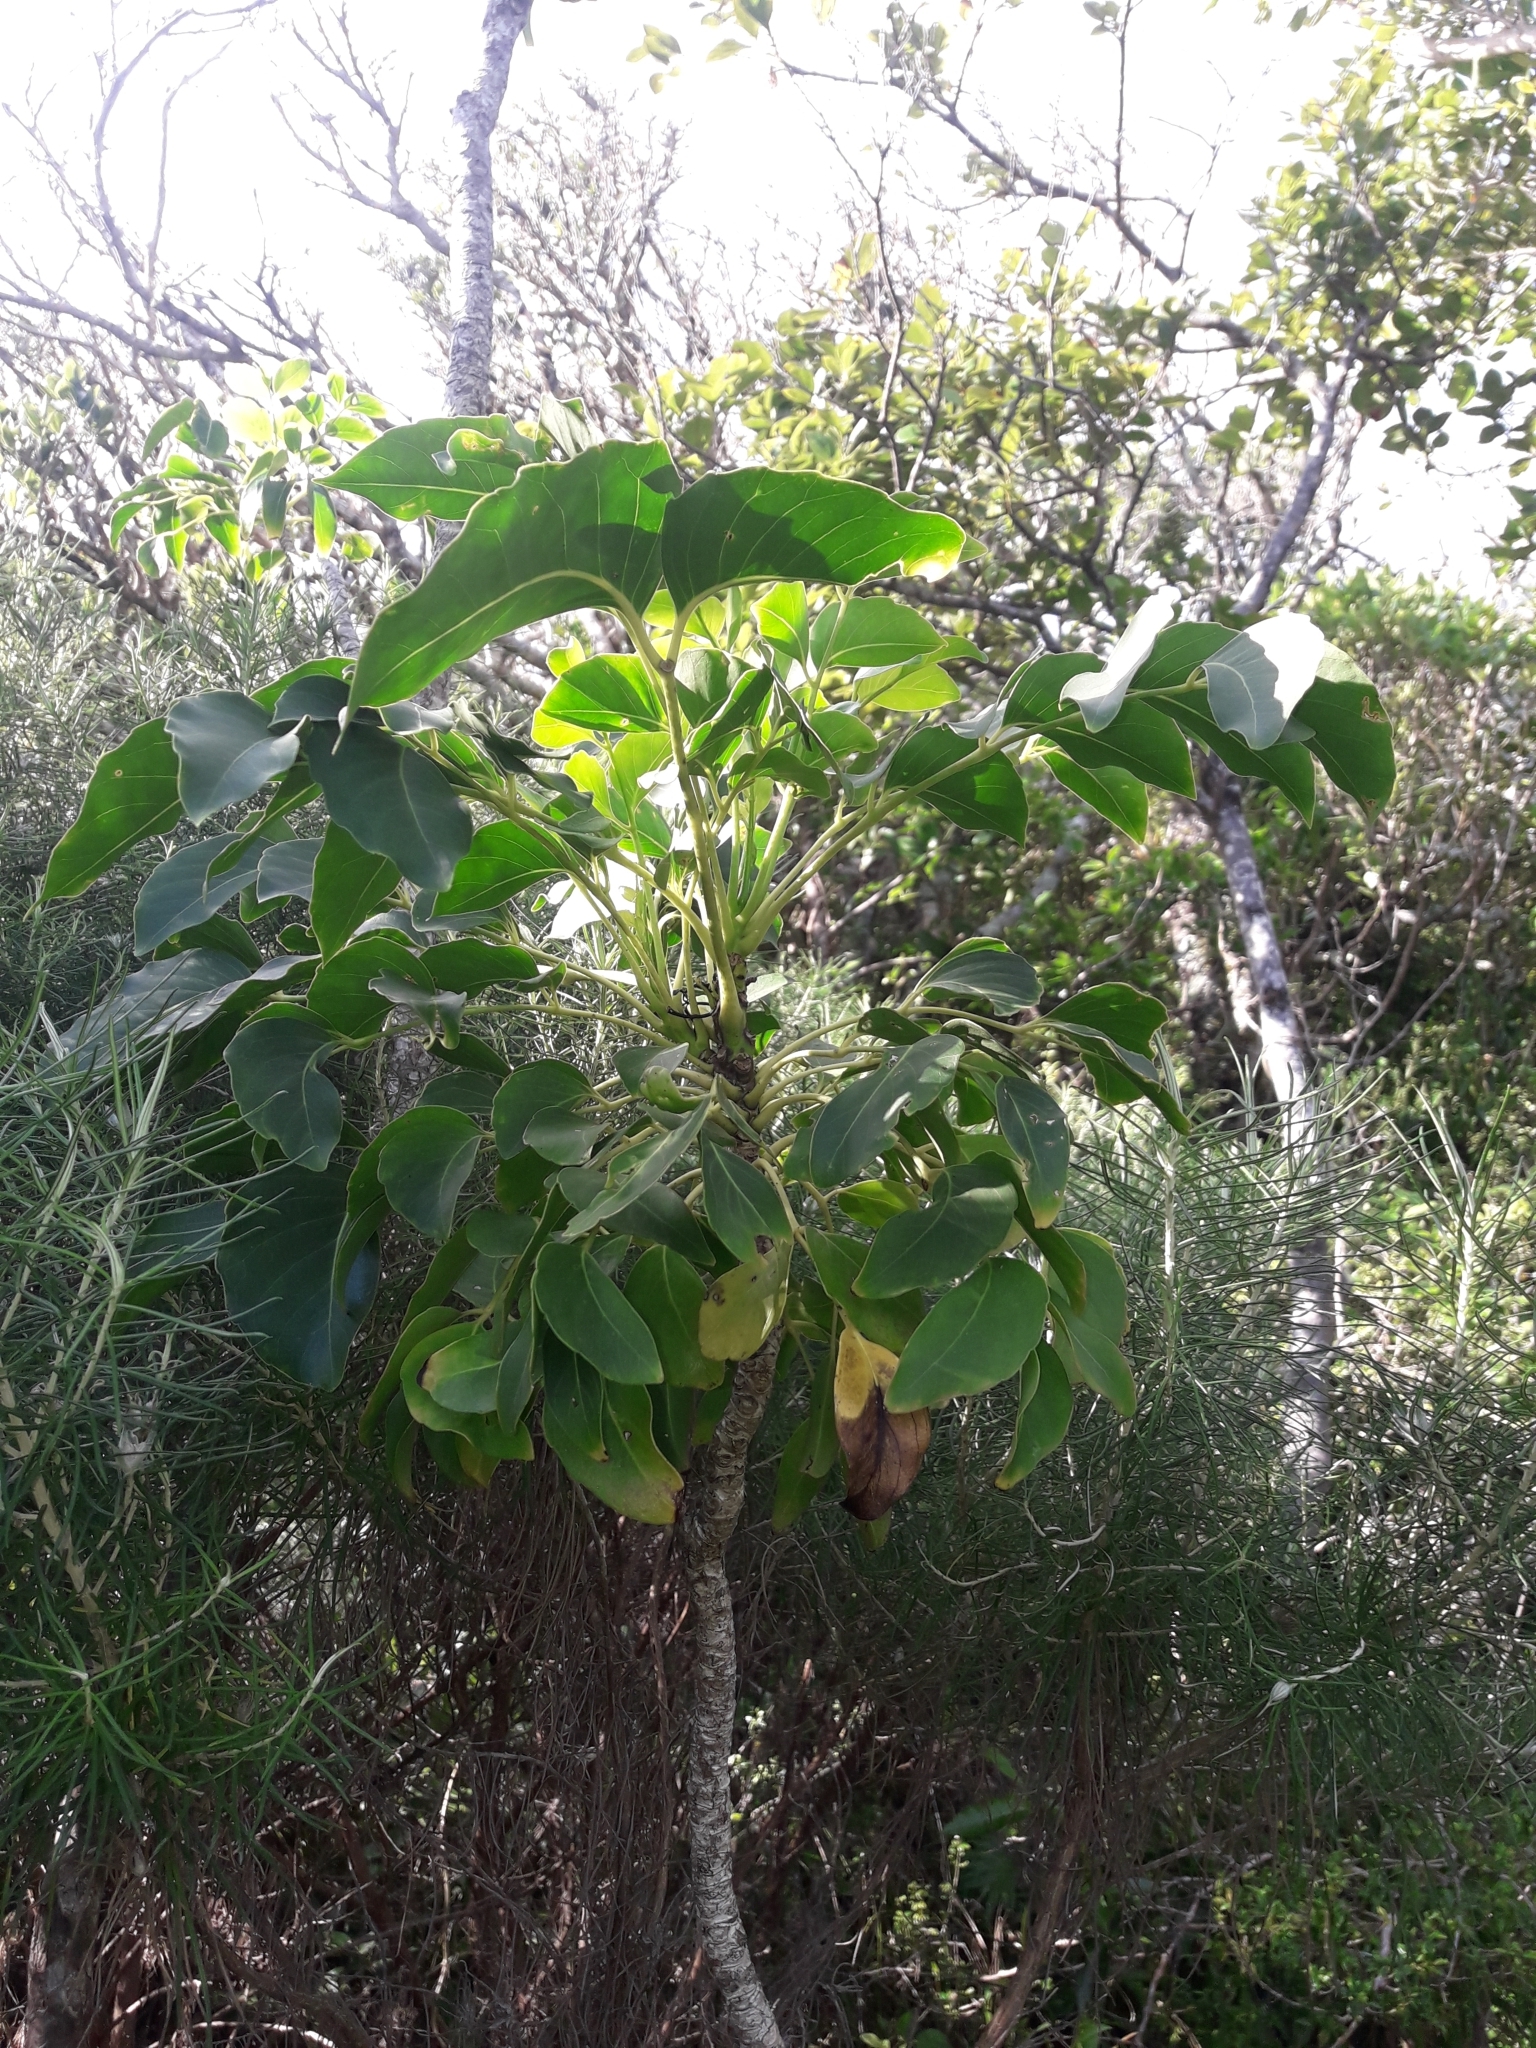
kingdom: Plantae
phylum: Tracheophyta
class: Magnoliopsida
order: Apiales
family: Araliaceae
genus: Polyscias
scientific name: Polyscias cissodendron
